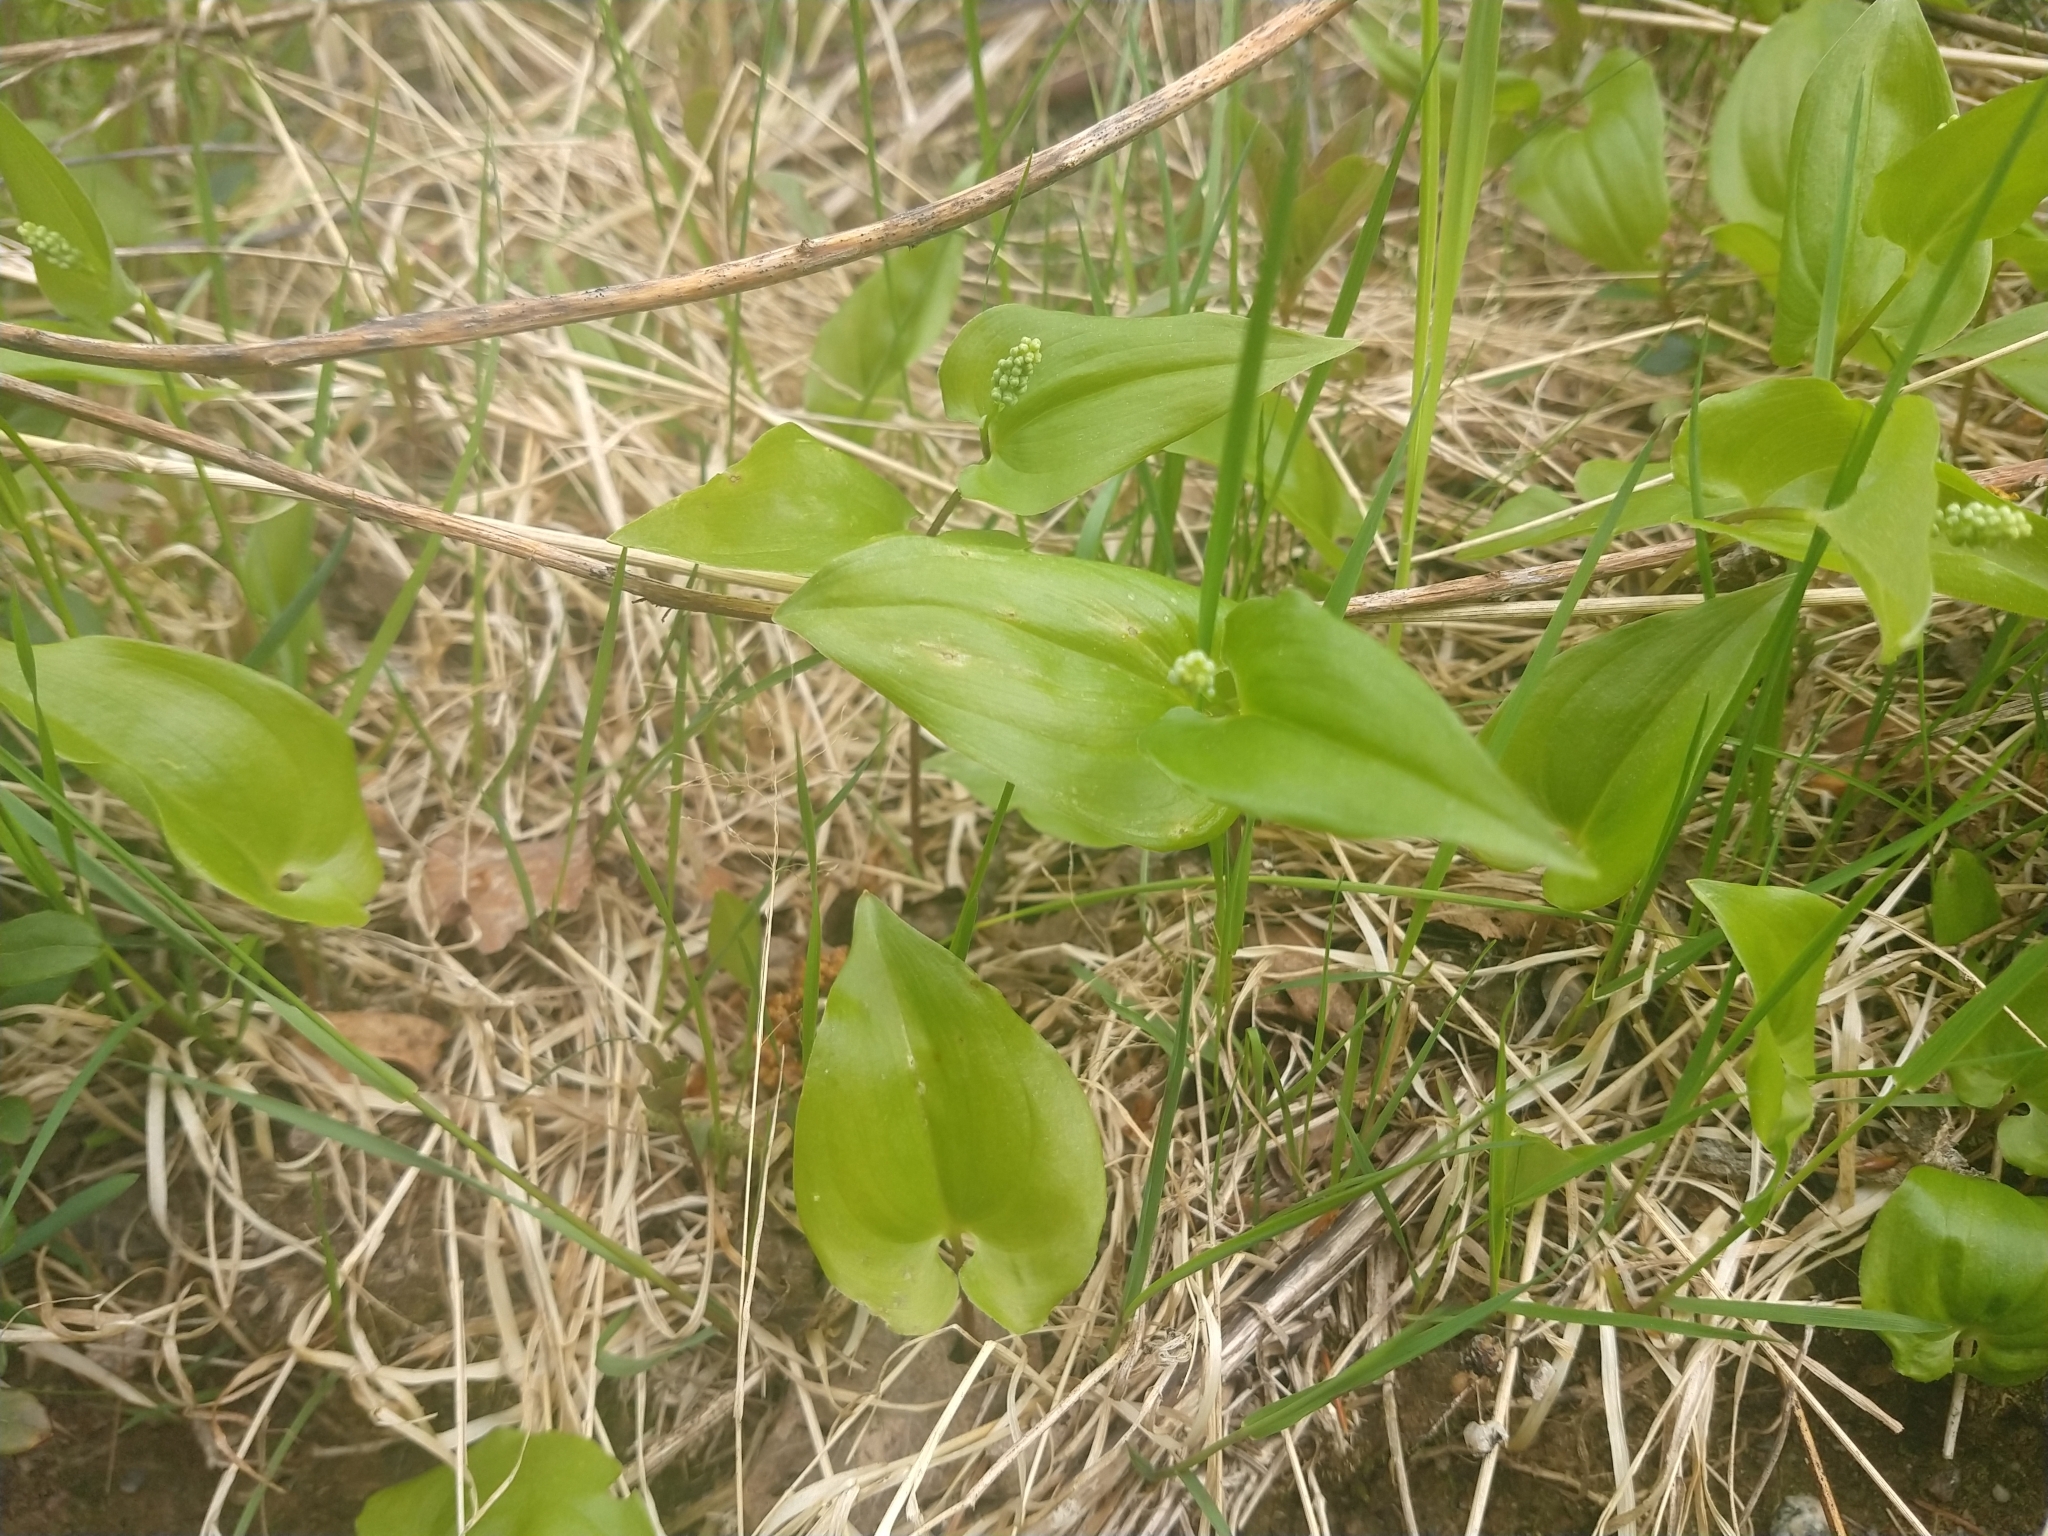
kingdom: Plantae
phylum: Tracheophyta
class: Liliopsida
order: Asparagales
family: Asparagaceae
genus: Maianthemum
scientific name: Maianthemum bifolium
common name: May lily
